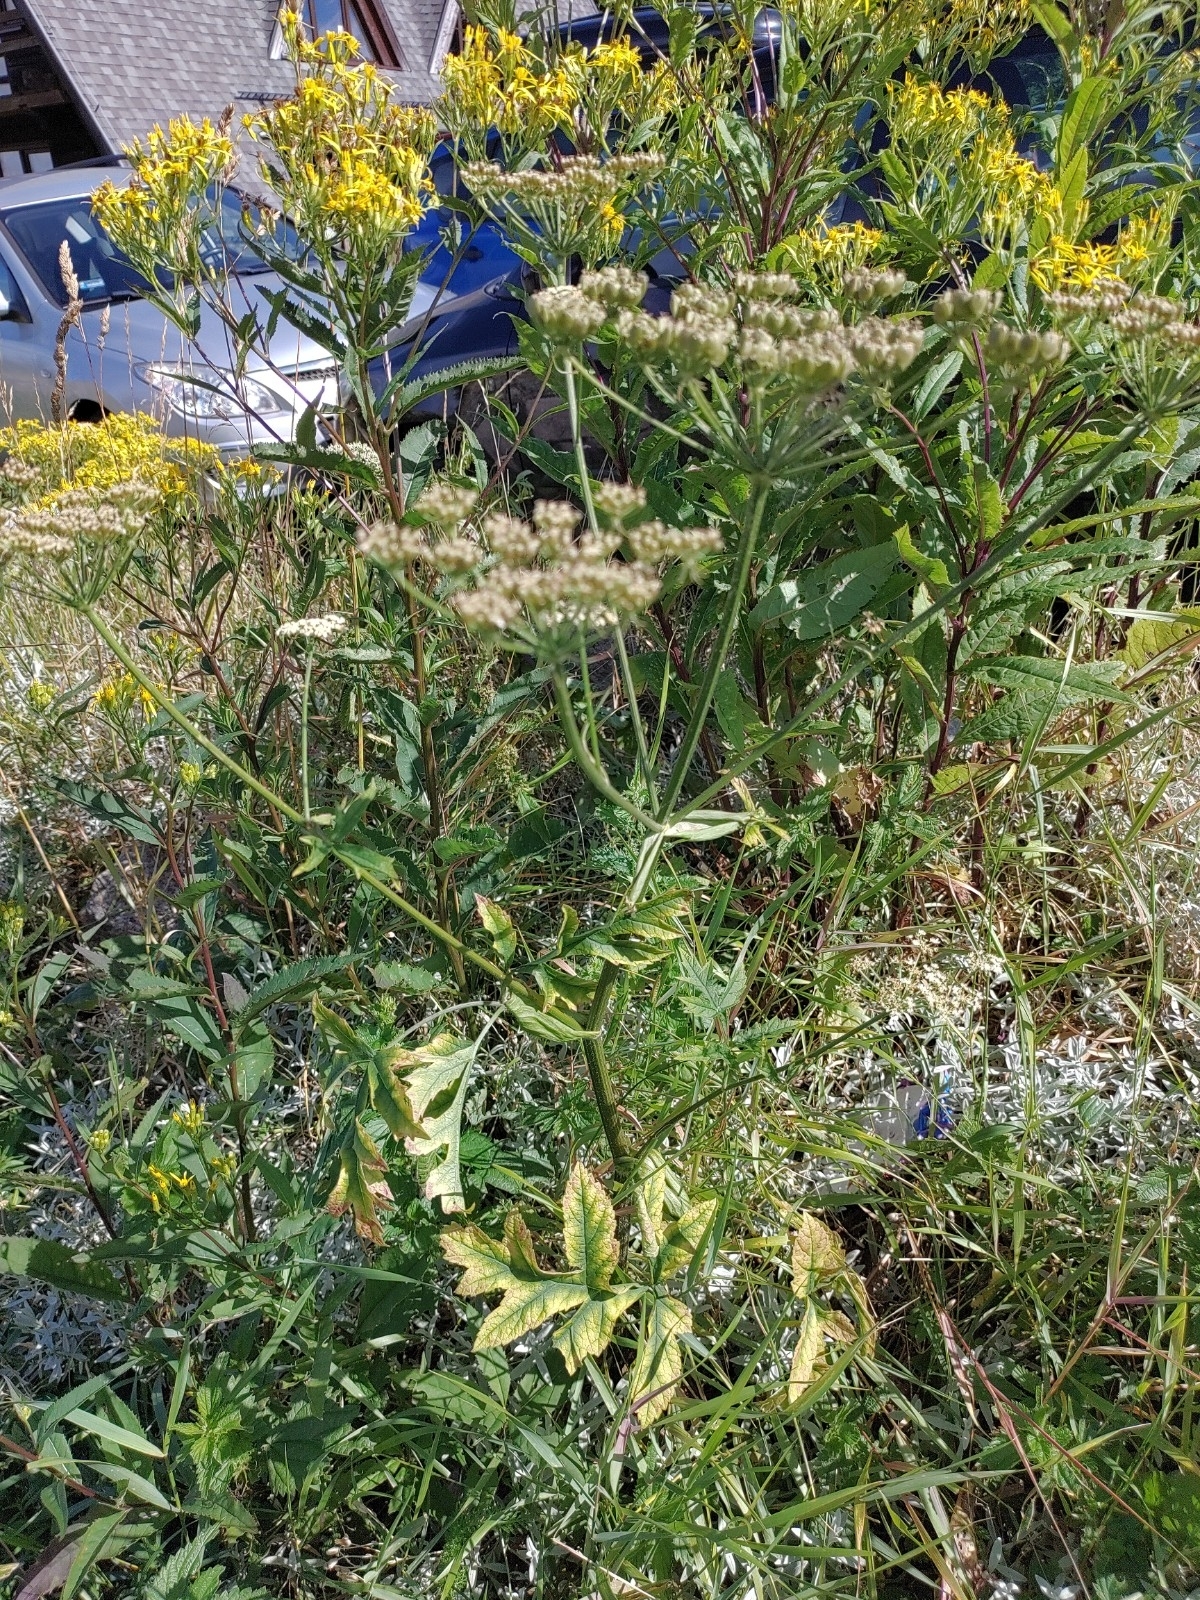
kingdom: Plantae
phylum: Tracheophyta
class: Magnoliopsida
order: Apiales
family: Apiaceae
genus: Heracleum
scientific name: Heracleum sphondylium
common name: Hogweed
